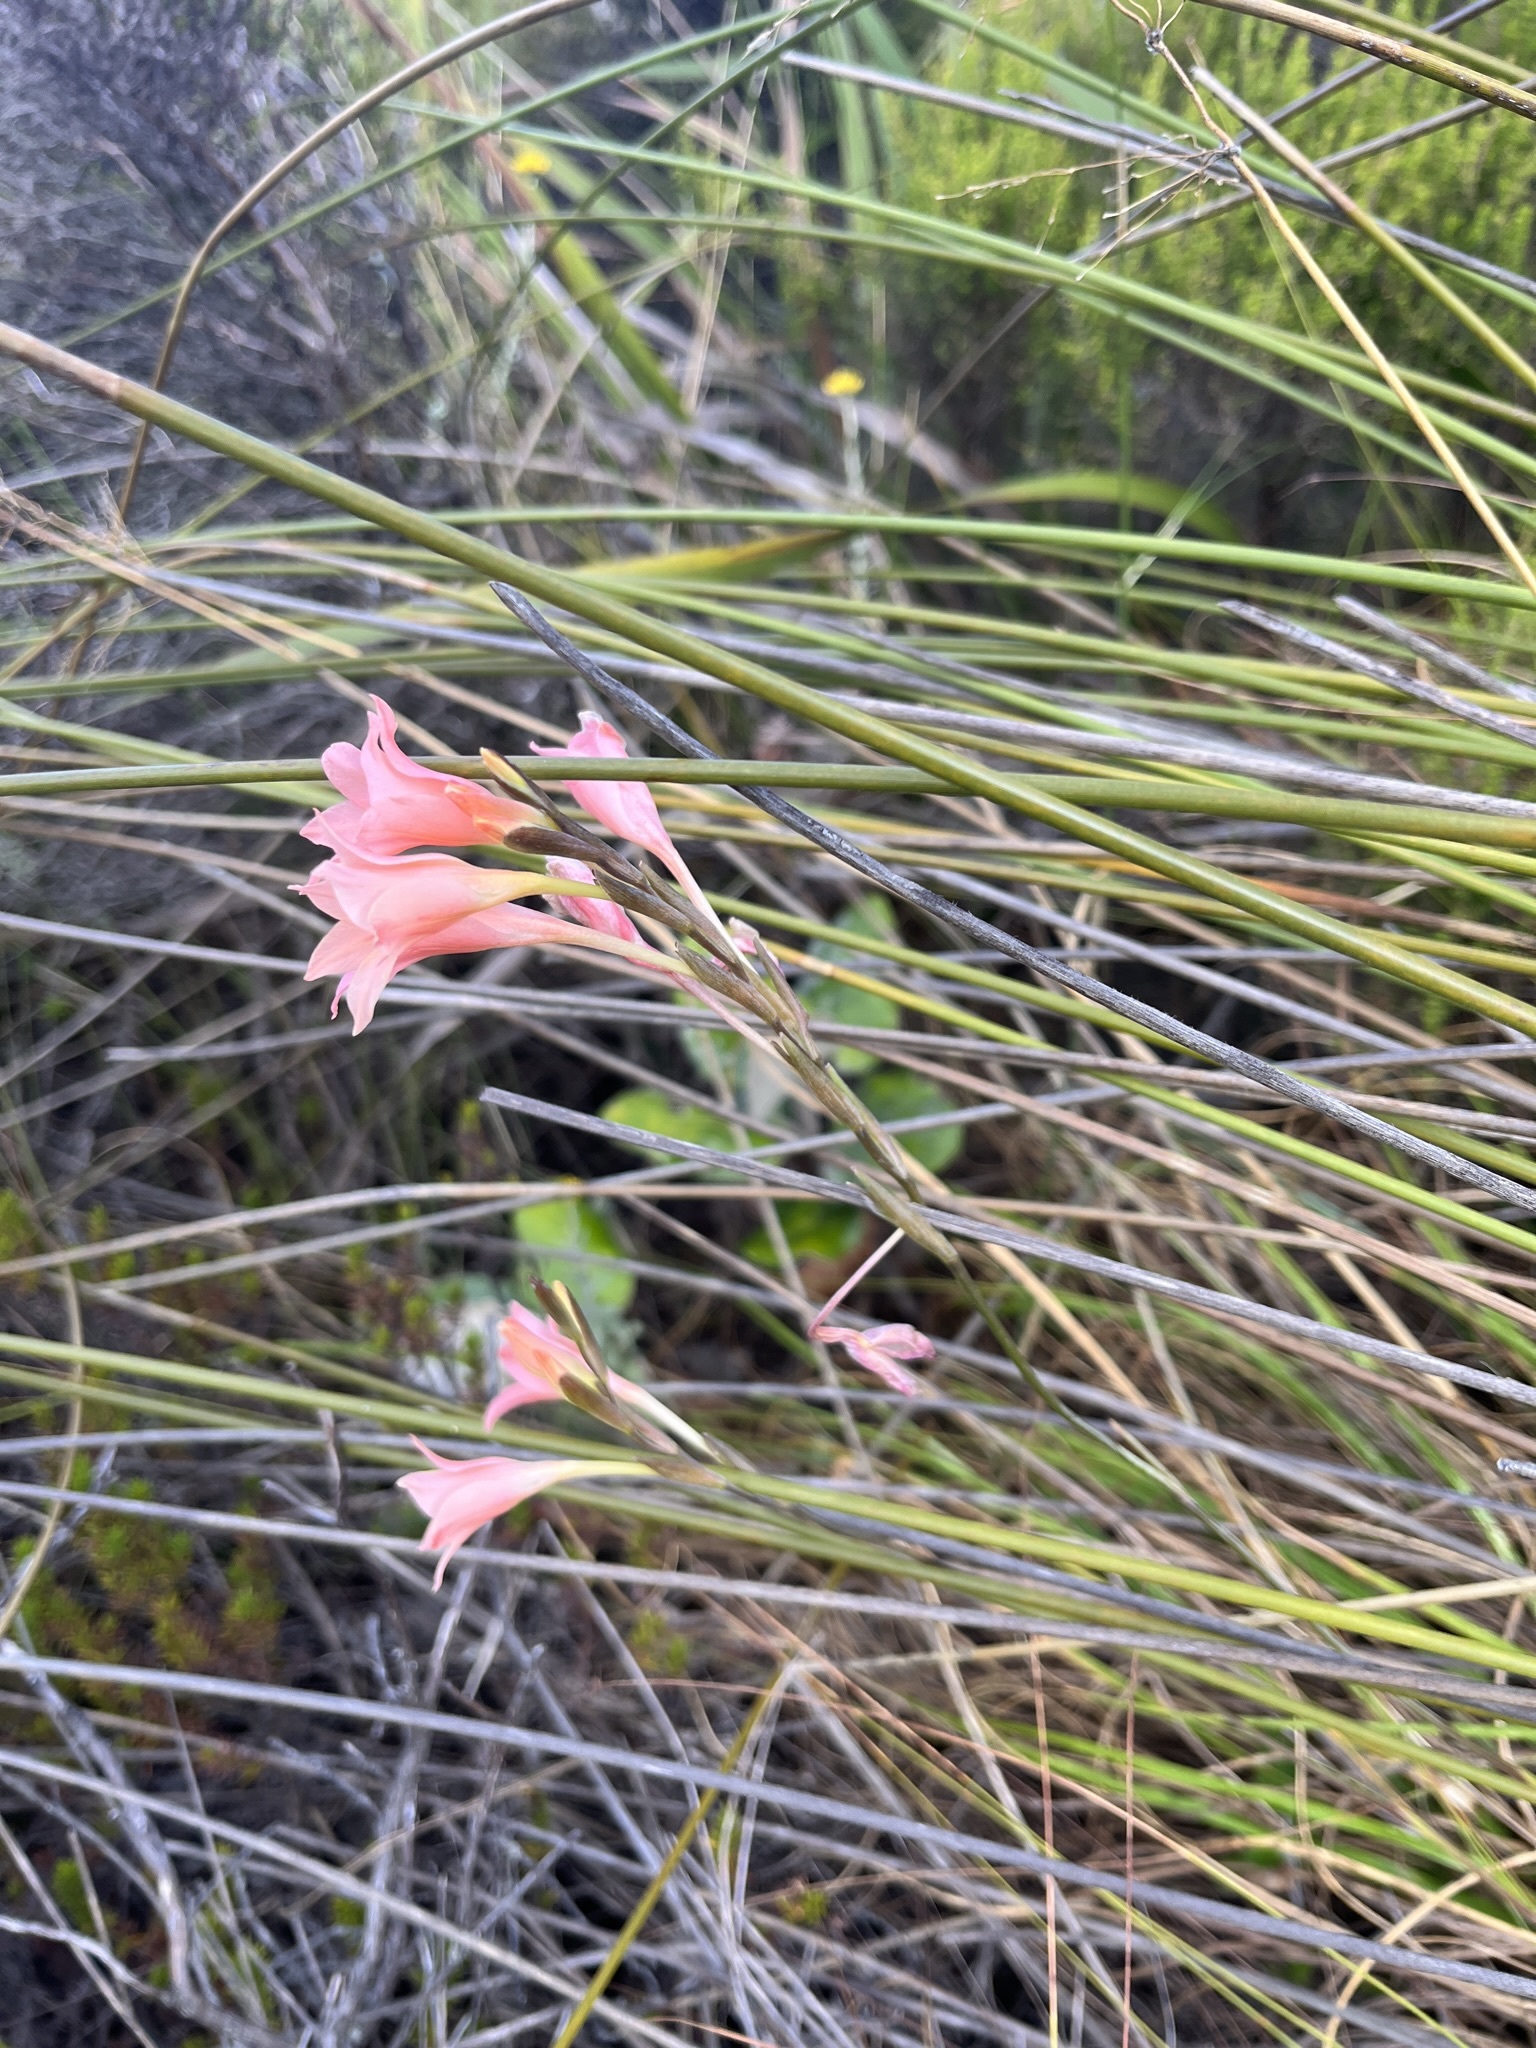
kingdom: Plantae
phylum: Tracheophyta
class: Liliopsida
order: Asparagales
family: Iridaceae
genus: Gladiolus
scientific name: Gladiolus monticola
